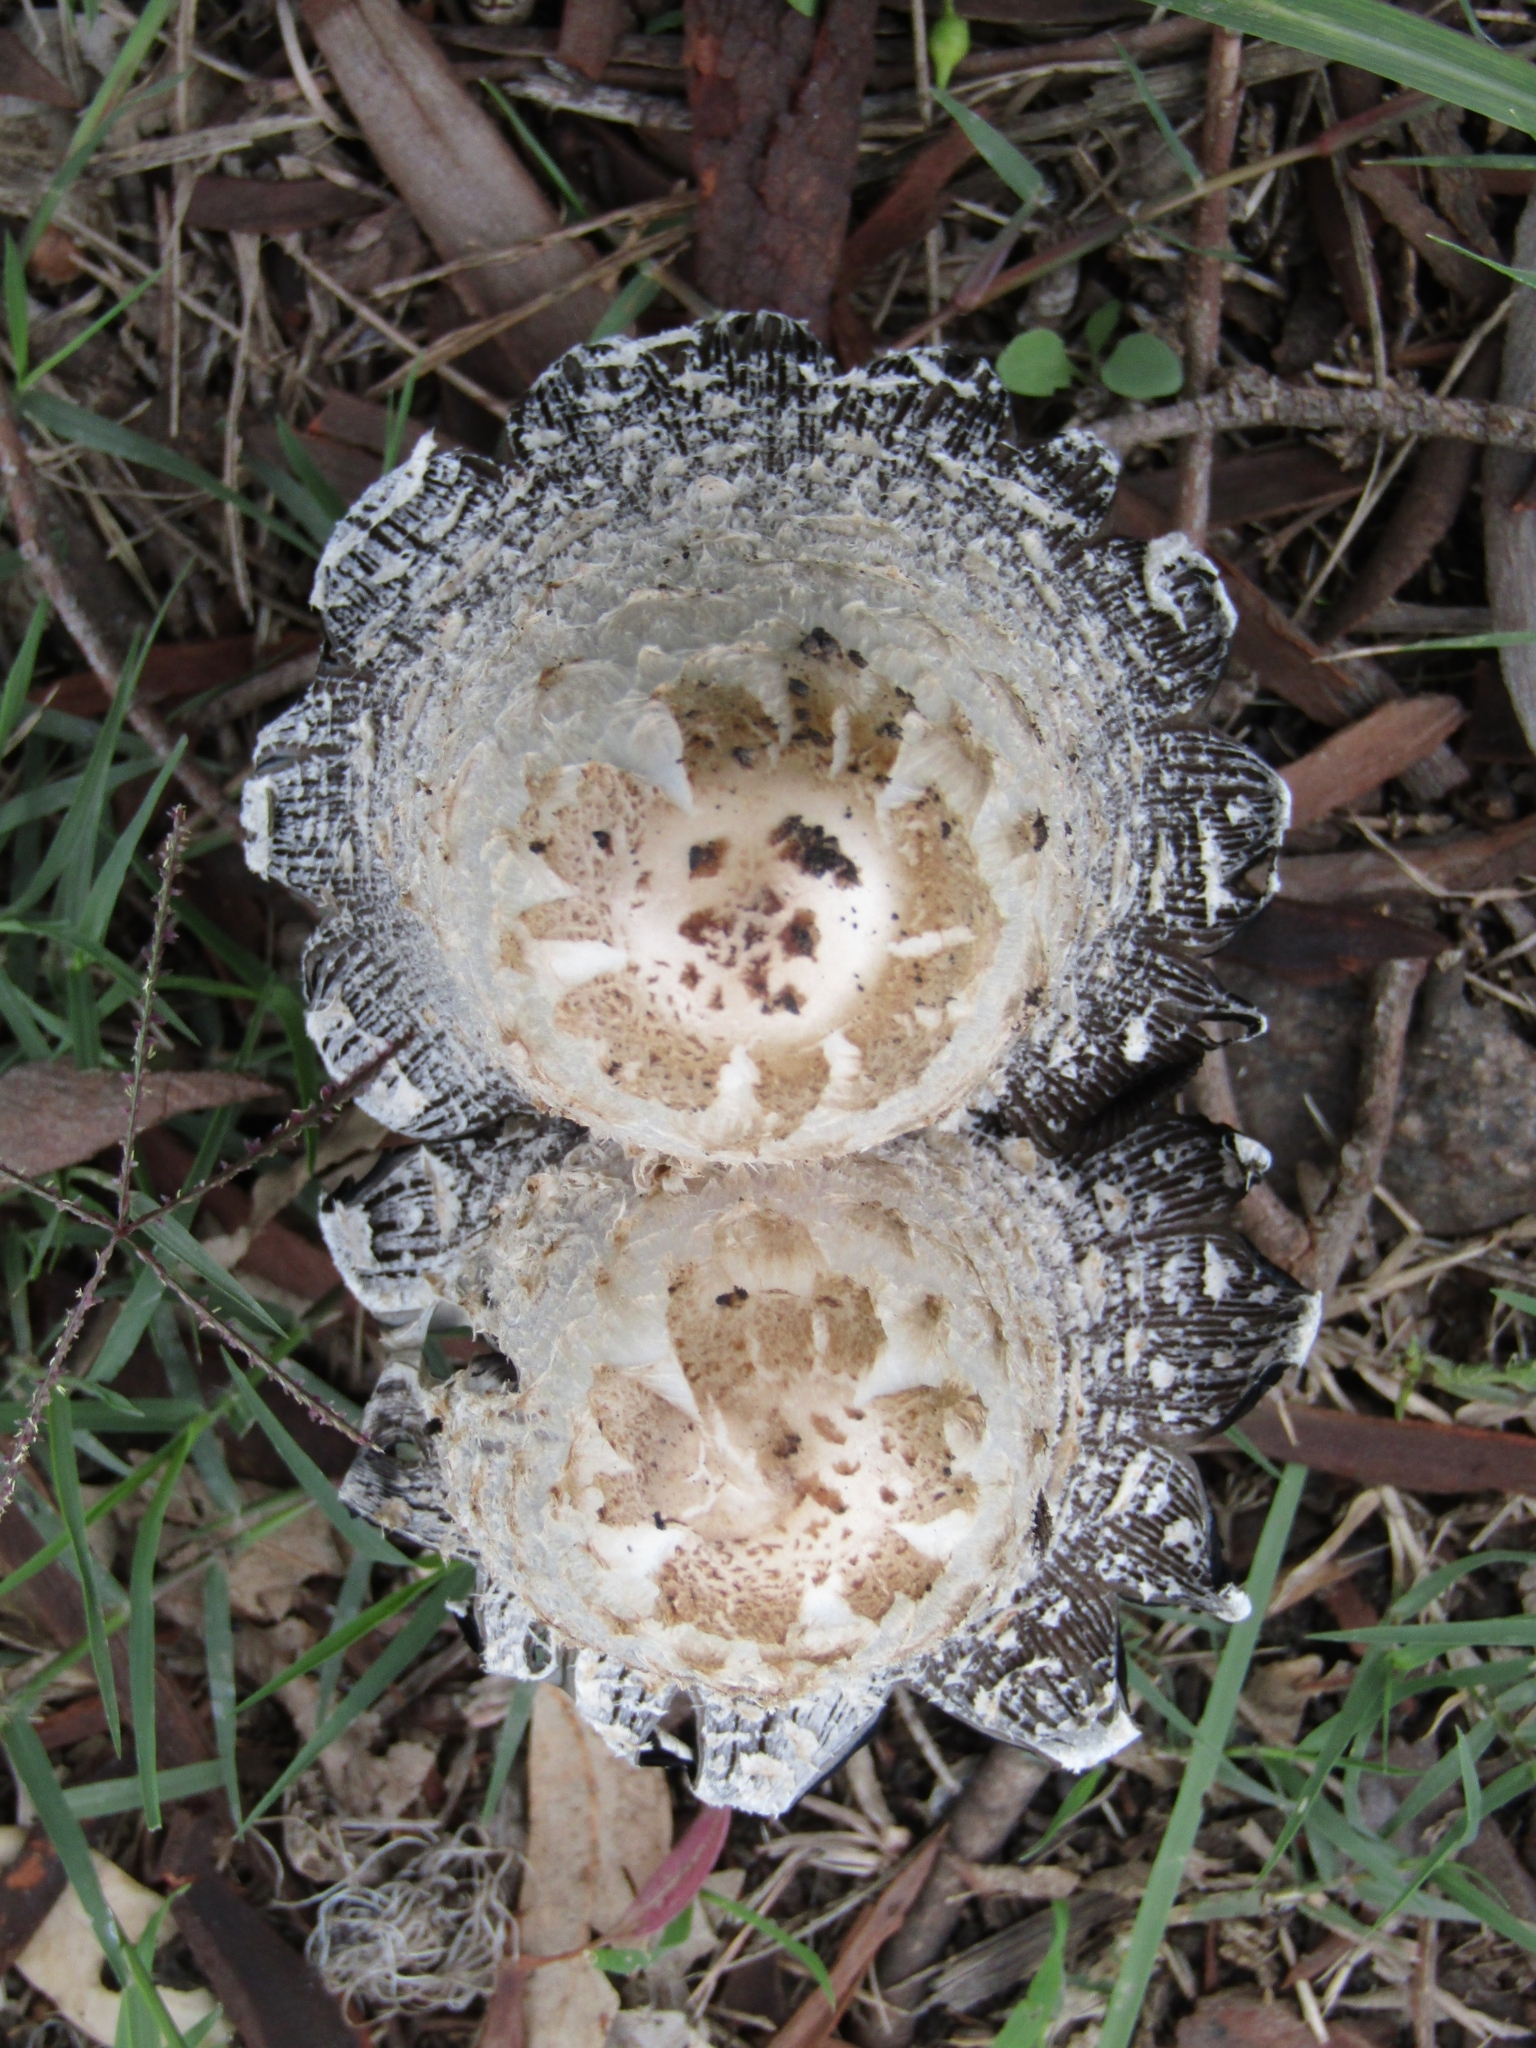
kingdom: Fungi
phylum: Basidiomycota
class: Agaricomycetes
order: Agaricales
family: Agaricaceae
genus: Coprinus
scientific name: Coprinus comatus
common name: Lawyer's wig
